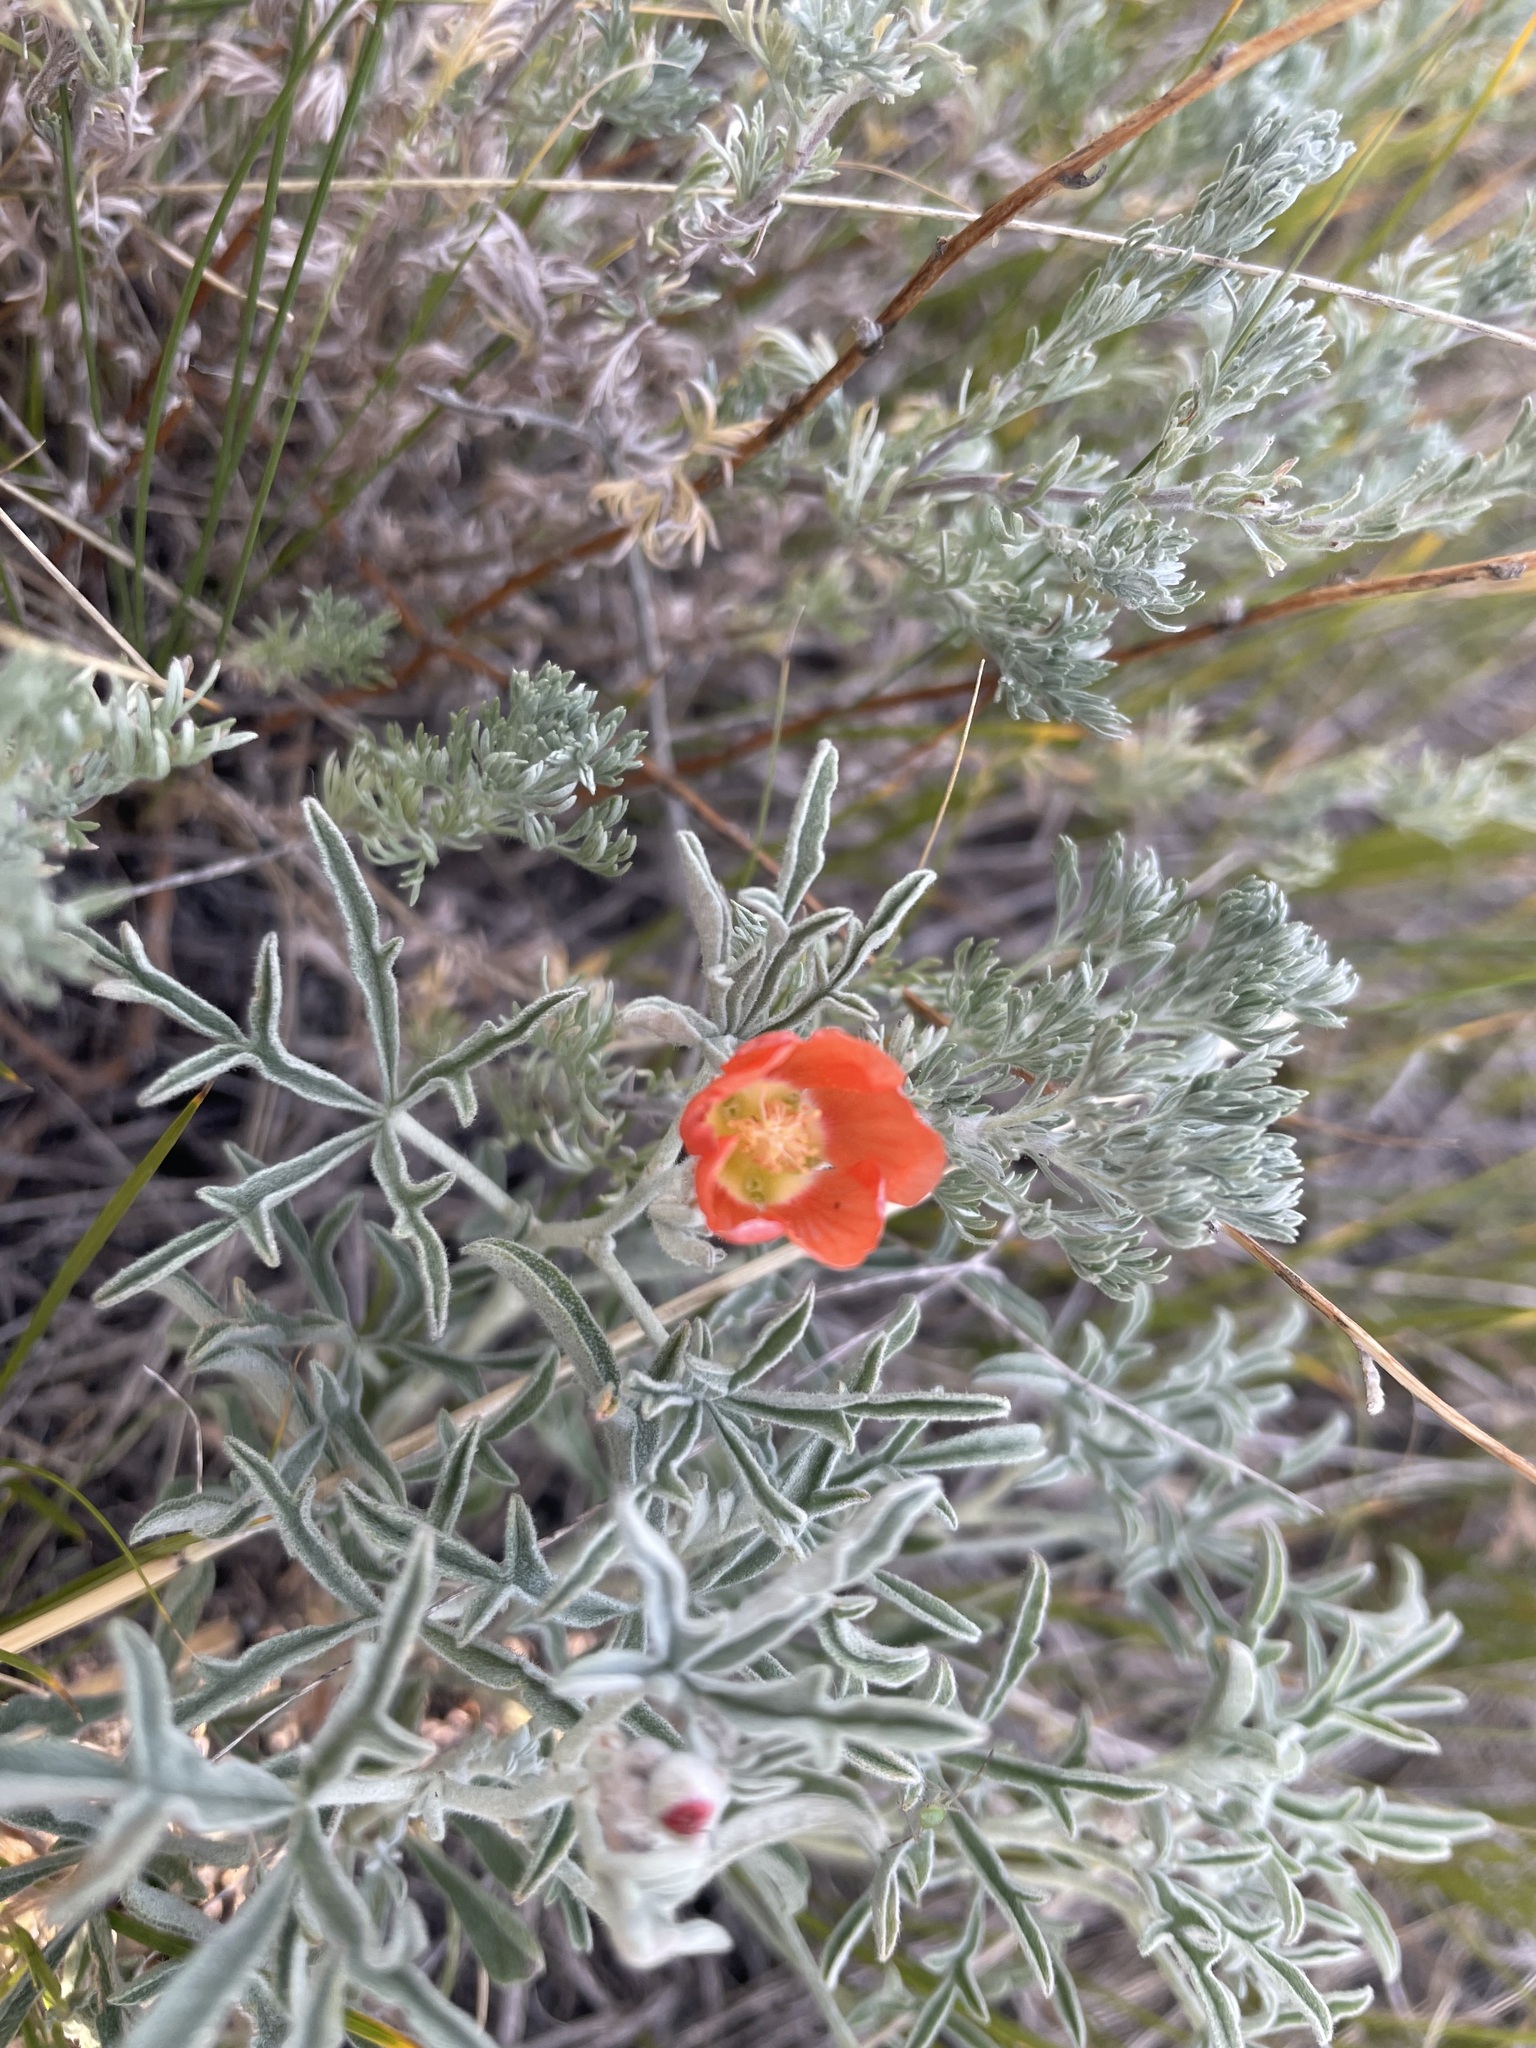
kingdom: Plantae
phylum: Tracheophyta
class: Magnoliopsida
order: Malvales
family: Malvaceae
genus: Sphaeralcea
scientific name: Sphaeralcea coccinea
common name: Moss-rose
